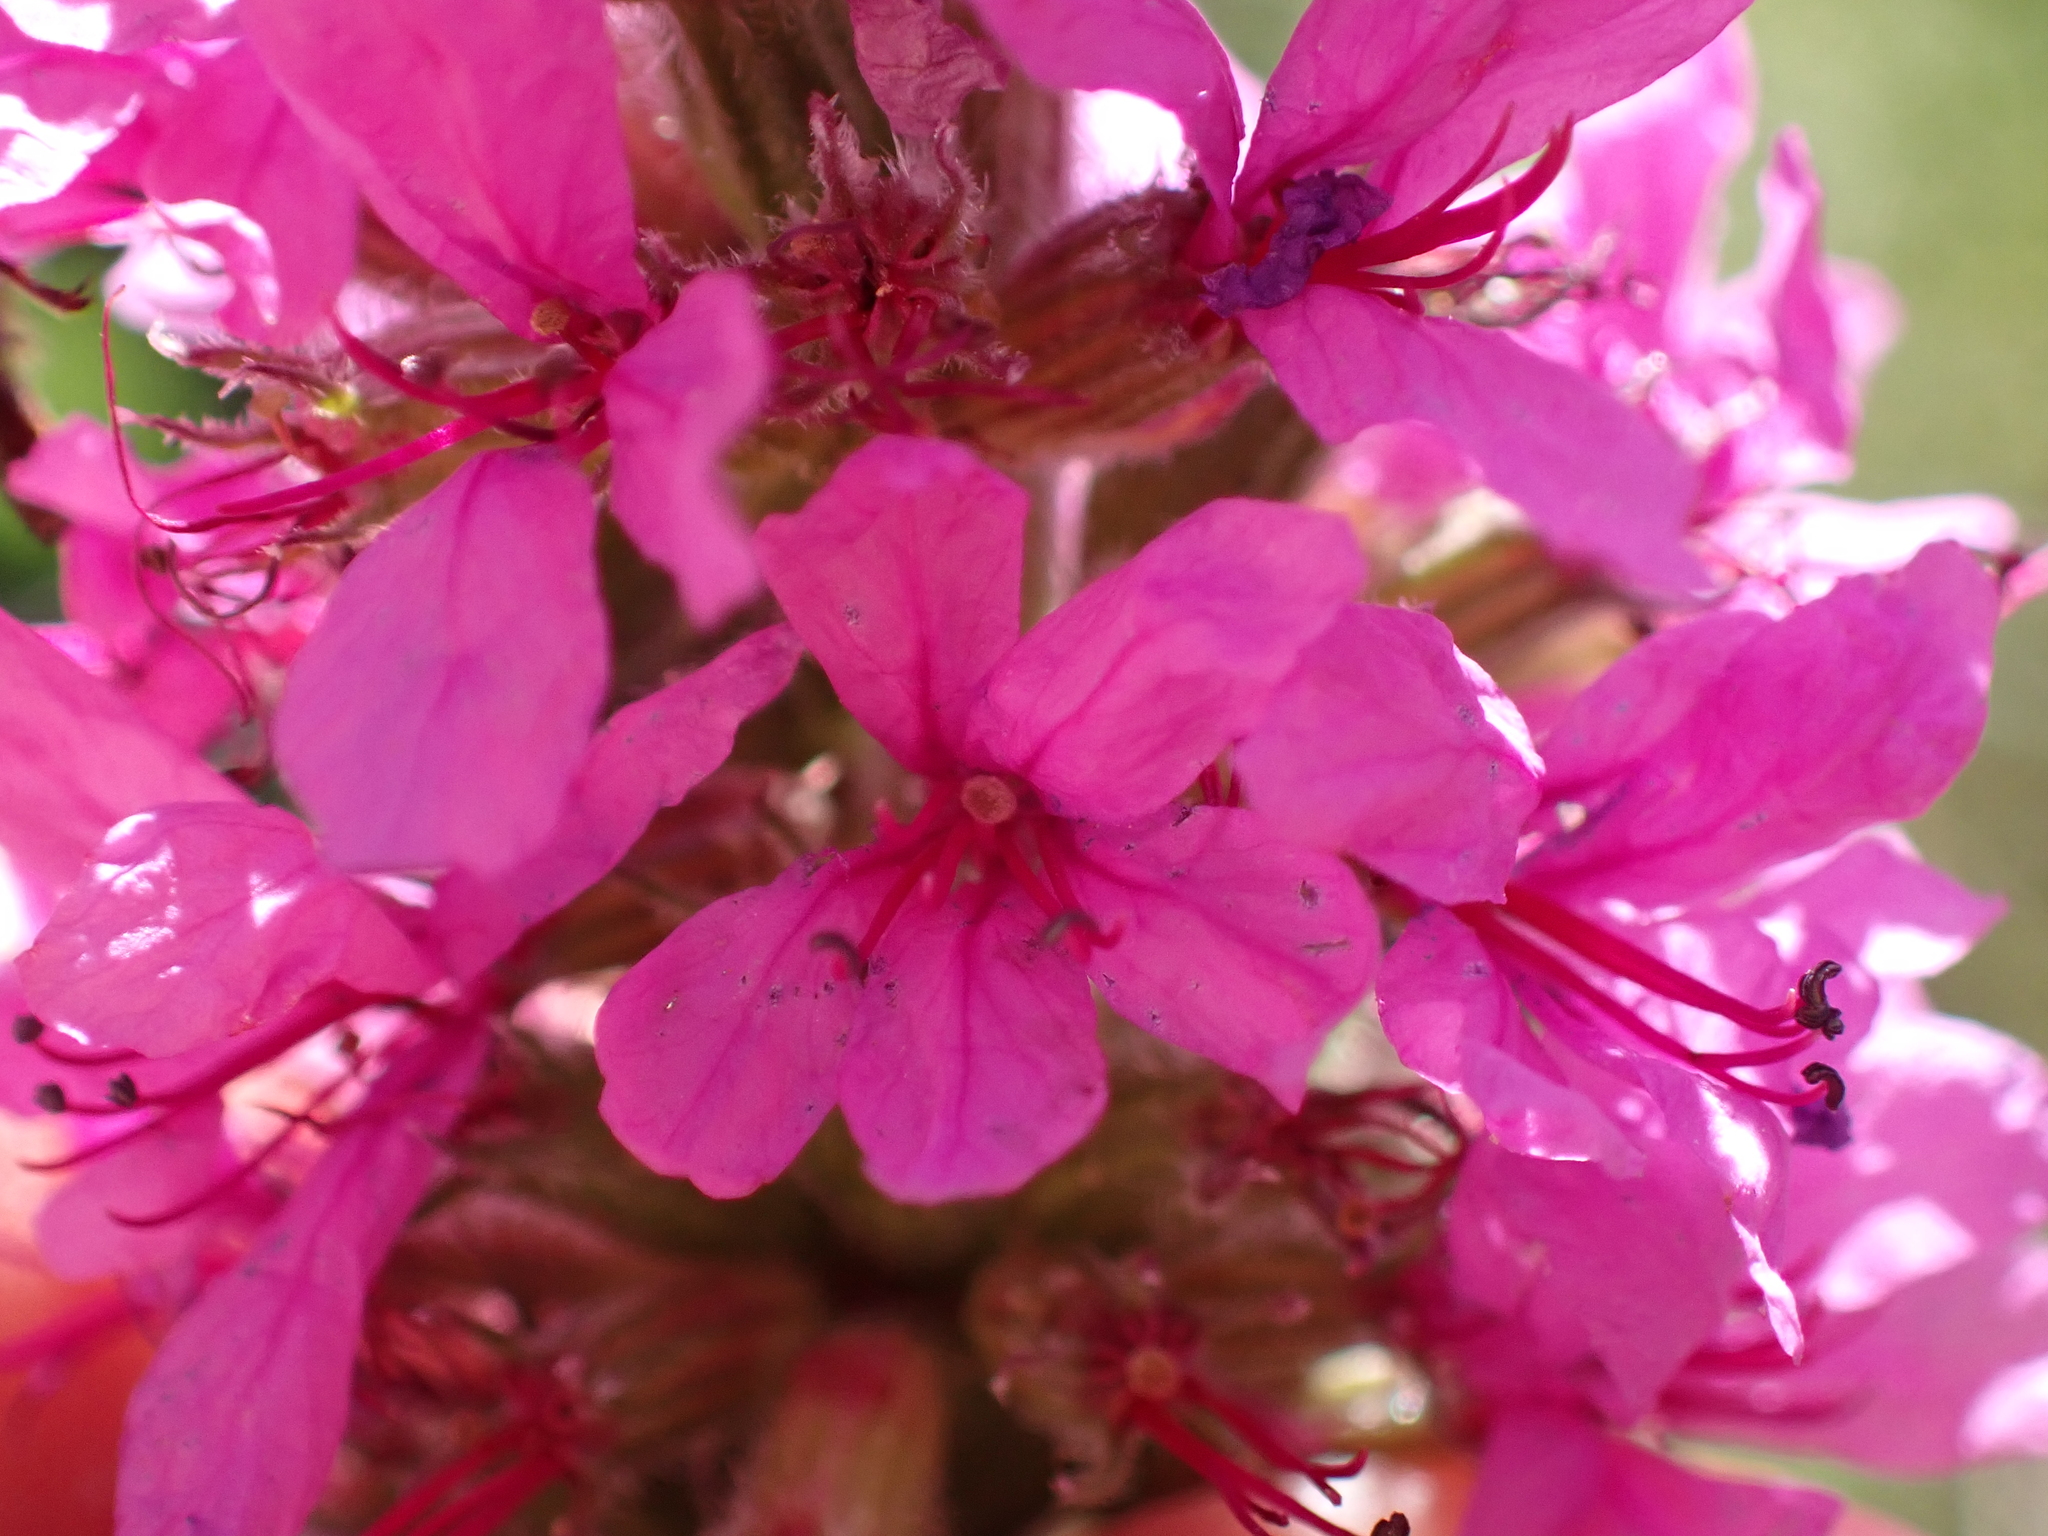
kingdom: Plantae
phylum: Tracheophyta
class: Magnoliopsida
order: Myrtales
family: Lythraceae
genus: Lythrum
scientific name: Lythrum salicaria
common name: Purple loosestrife
